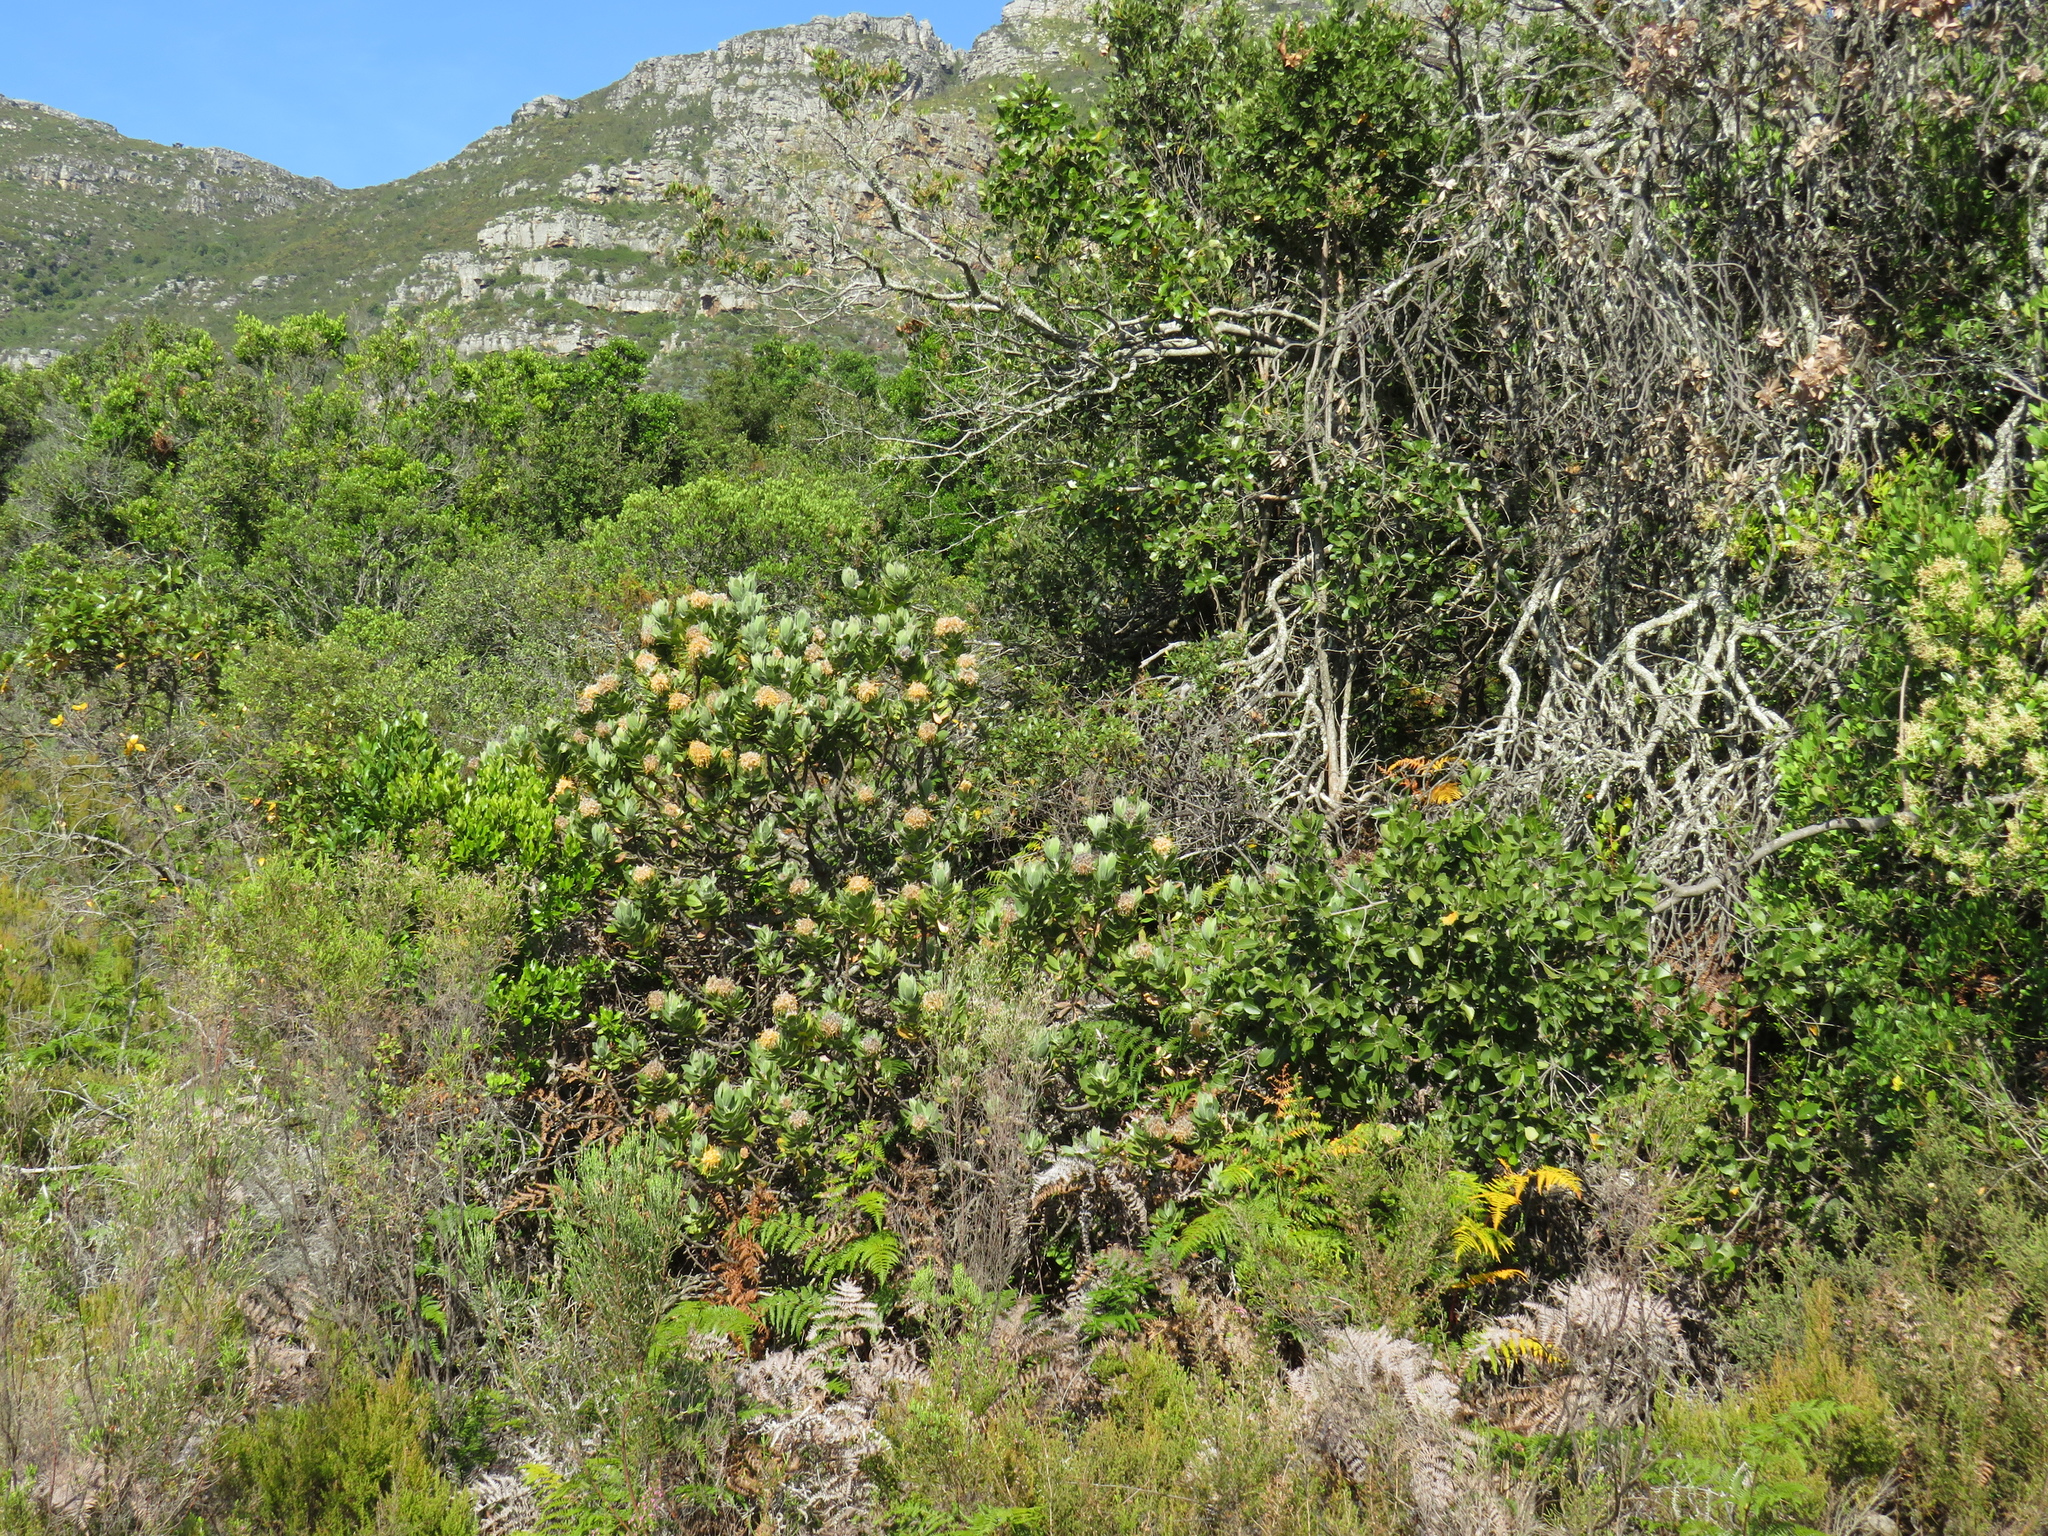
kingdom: Plantae
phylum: Tracheophyta
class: Magnoliopsida
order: Proteales
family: Proteaceae
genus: Leucospermum
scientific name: Leucospermum conocarpodendron
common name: Tree pincushion
